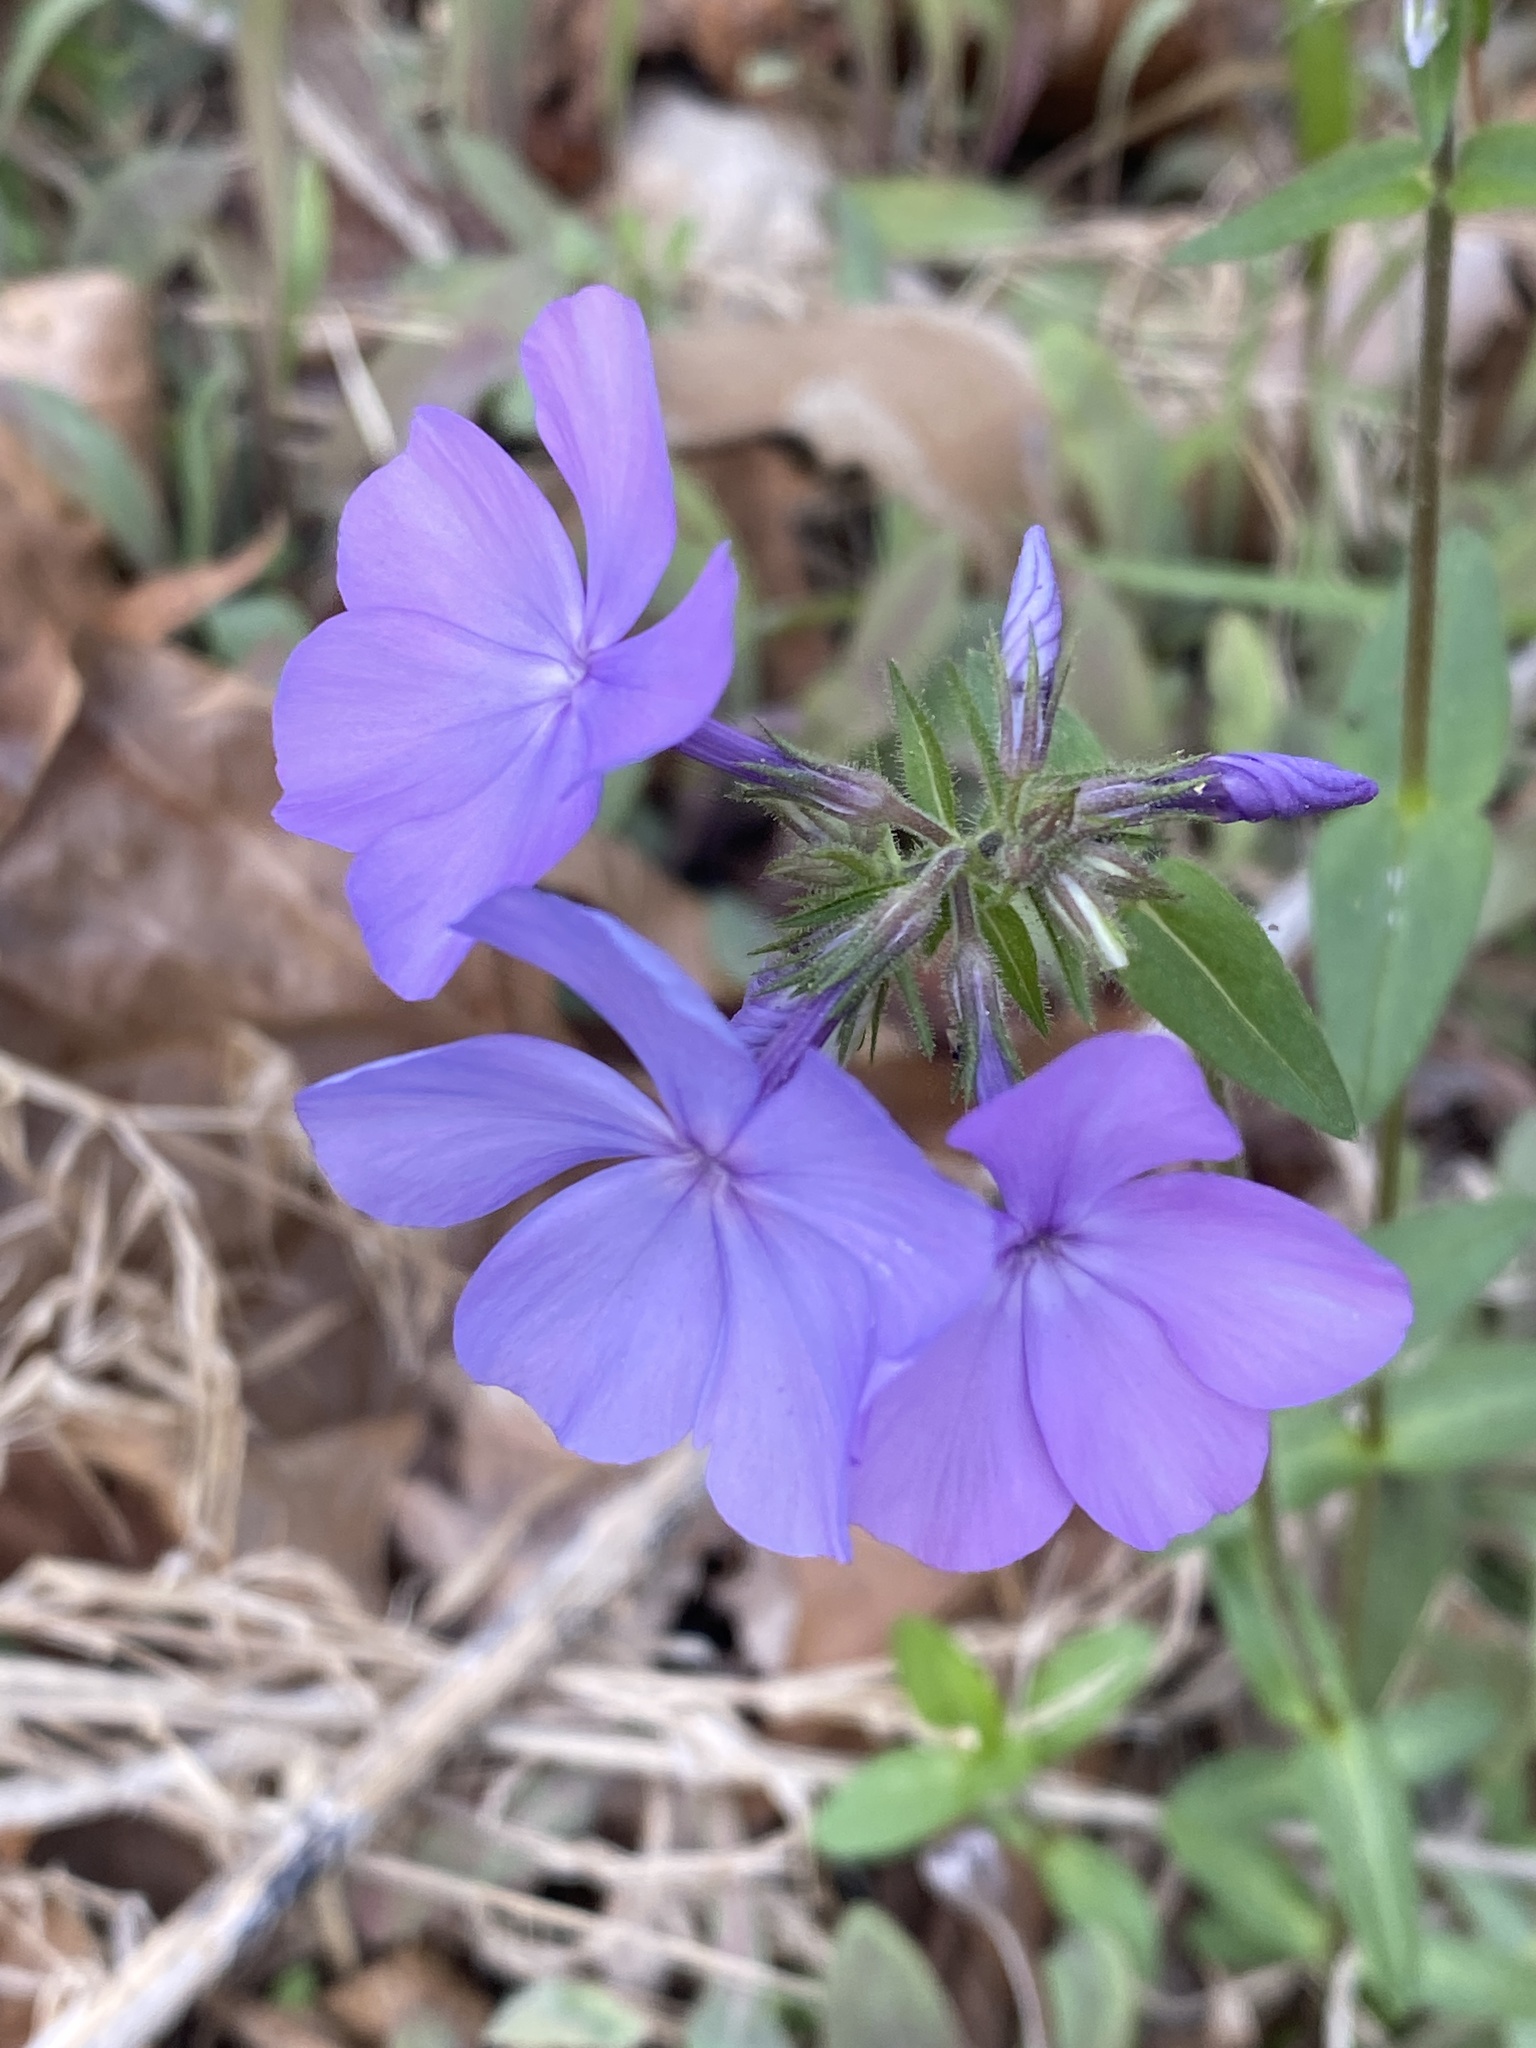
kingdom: Plantae
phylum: Tracheophyta
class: Magnoliopsida
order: Ericales
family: Polemoniaceae
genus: Phlox
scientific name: Phlox divaricata
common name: Blue phlox
